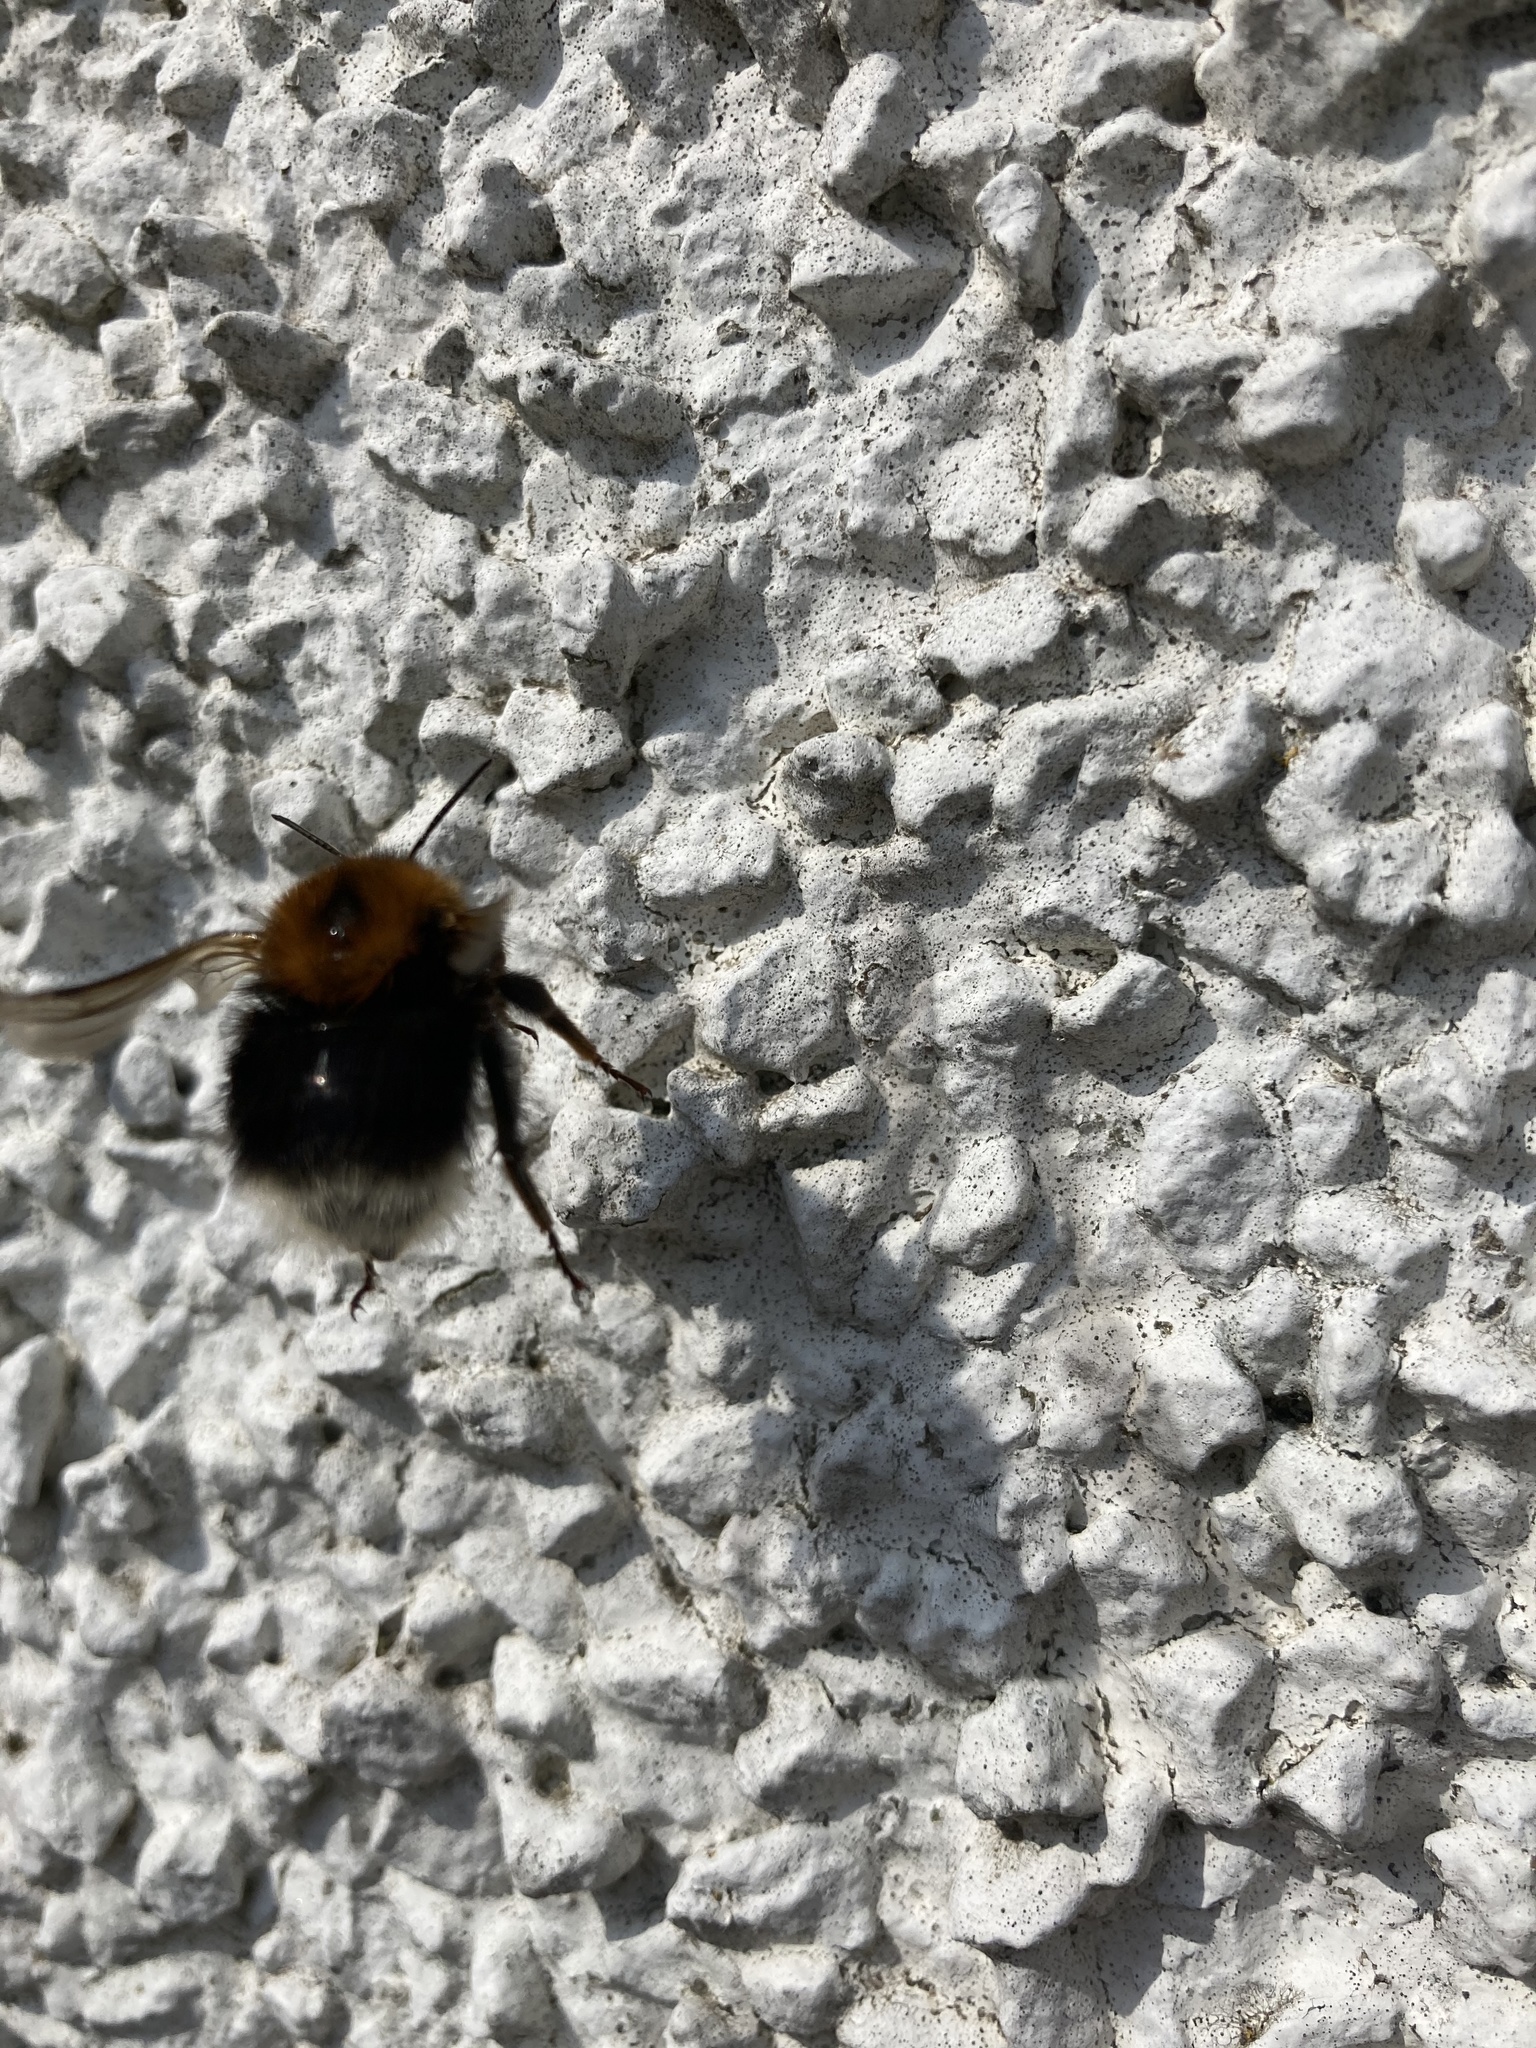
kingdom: Animalia
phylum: Arthropoda
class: Insecta
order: Hymenoptera
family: Apidae
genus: Bombus
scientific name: Bombus hypnorum
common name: New garden bumblebee
